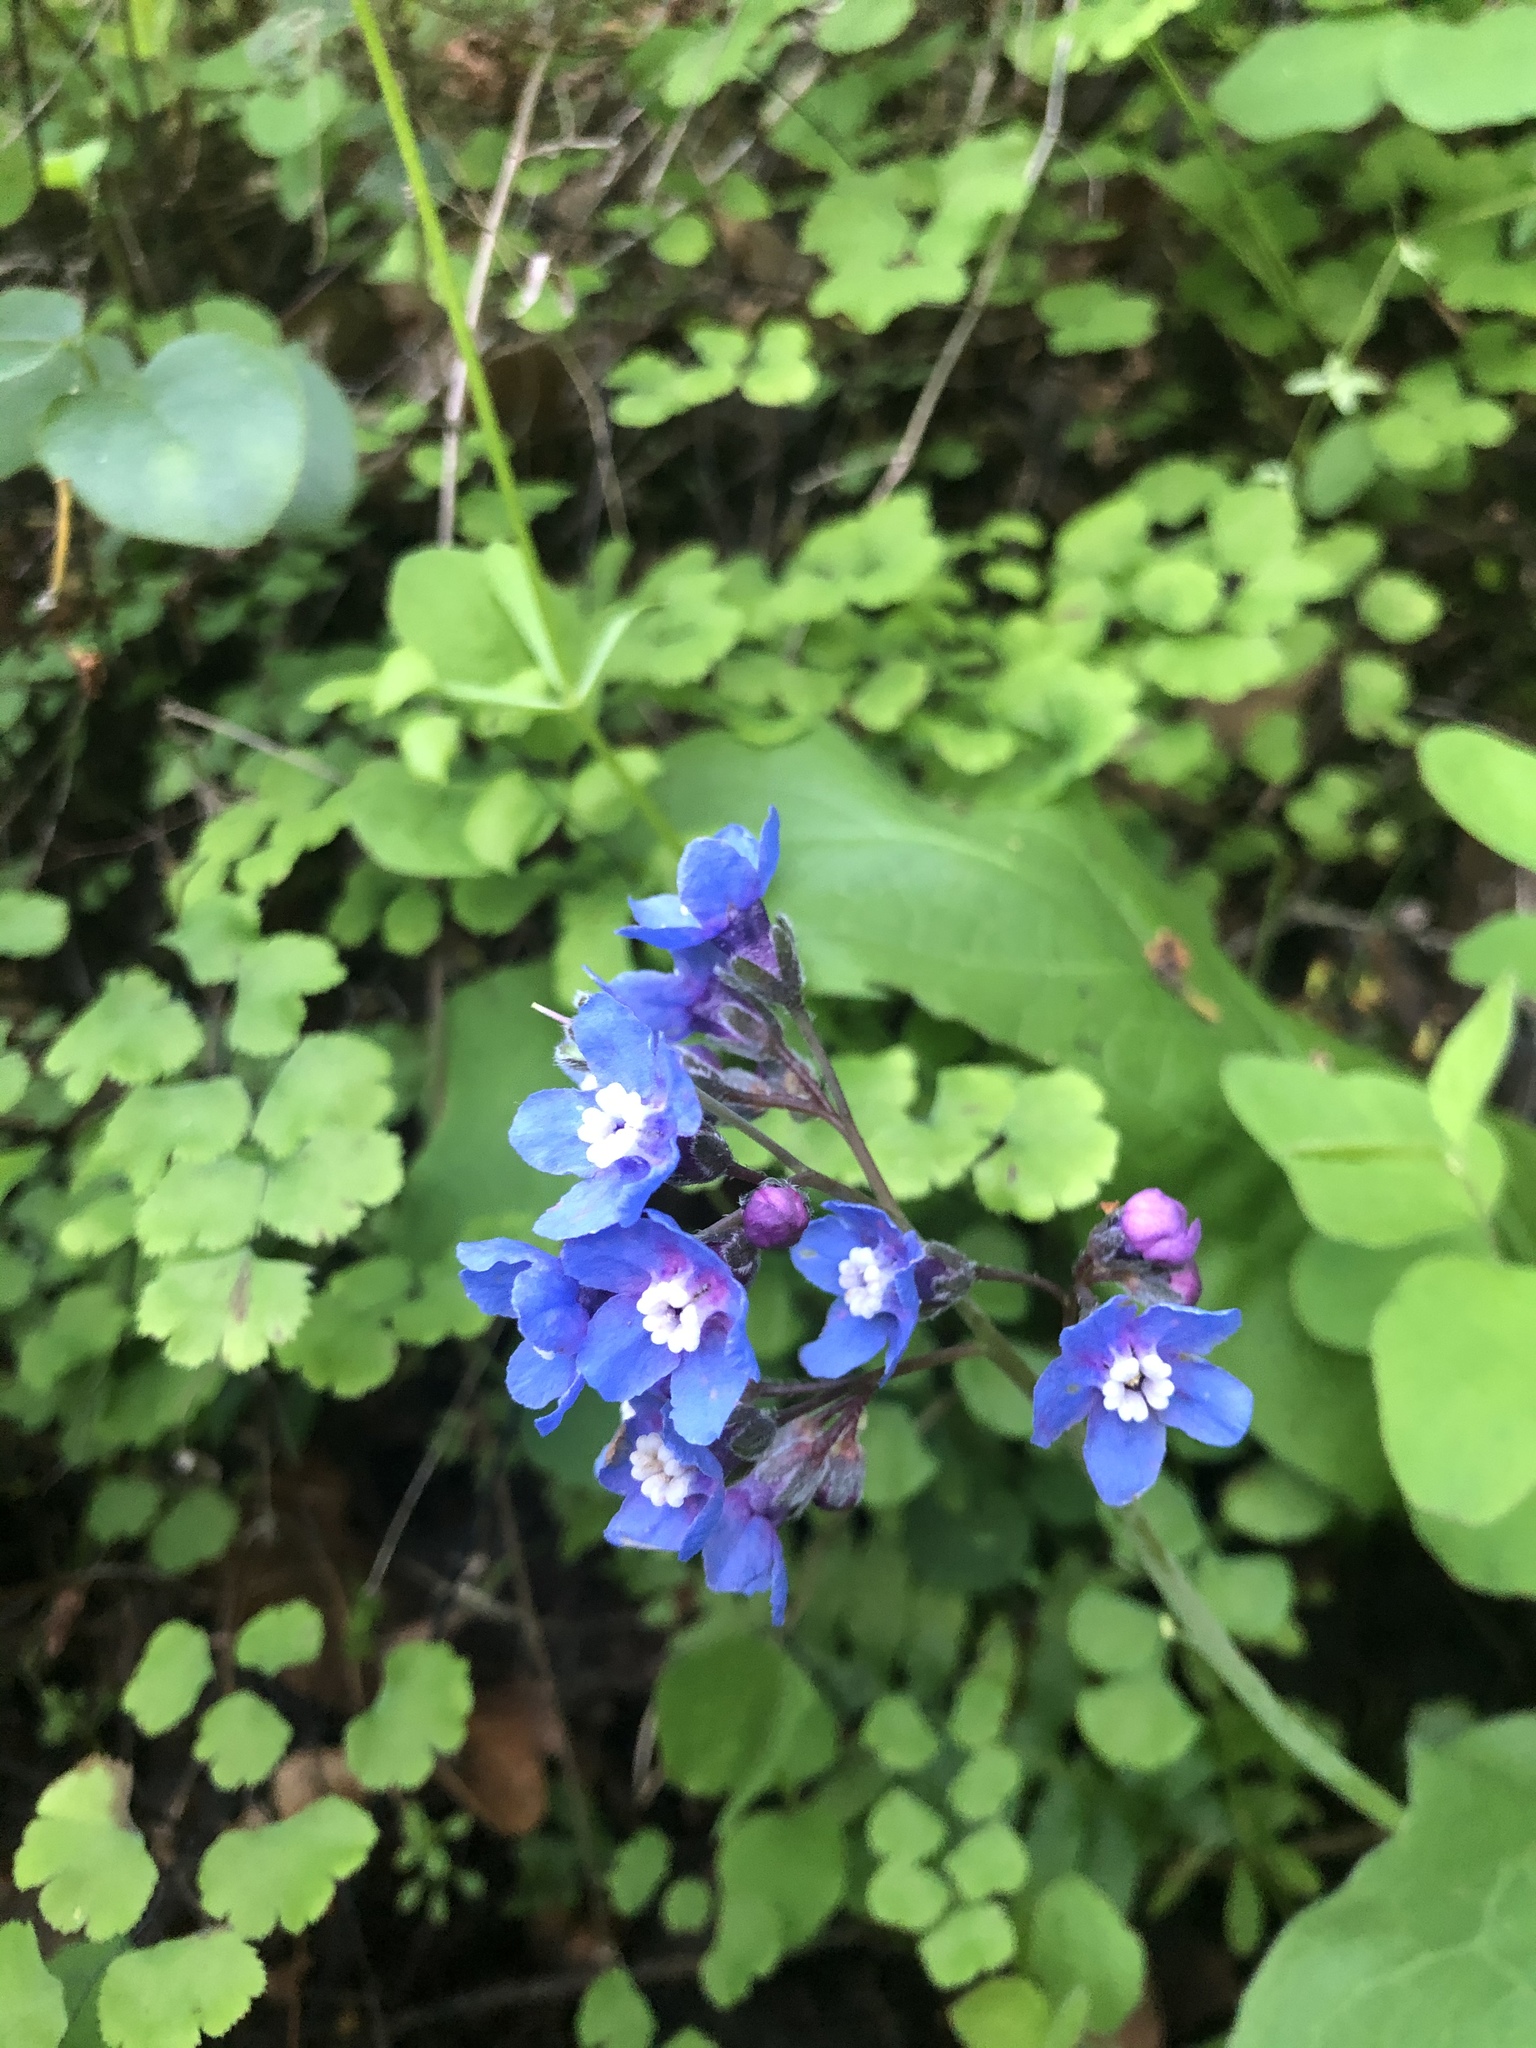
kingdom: Plantae
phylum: Tracheophyta
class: Magnoliopsida
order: Boraginales
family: Boraginaceae
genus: Adelinia
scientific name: Adelinia grande
